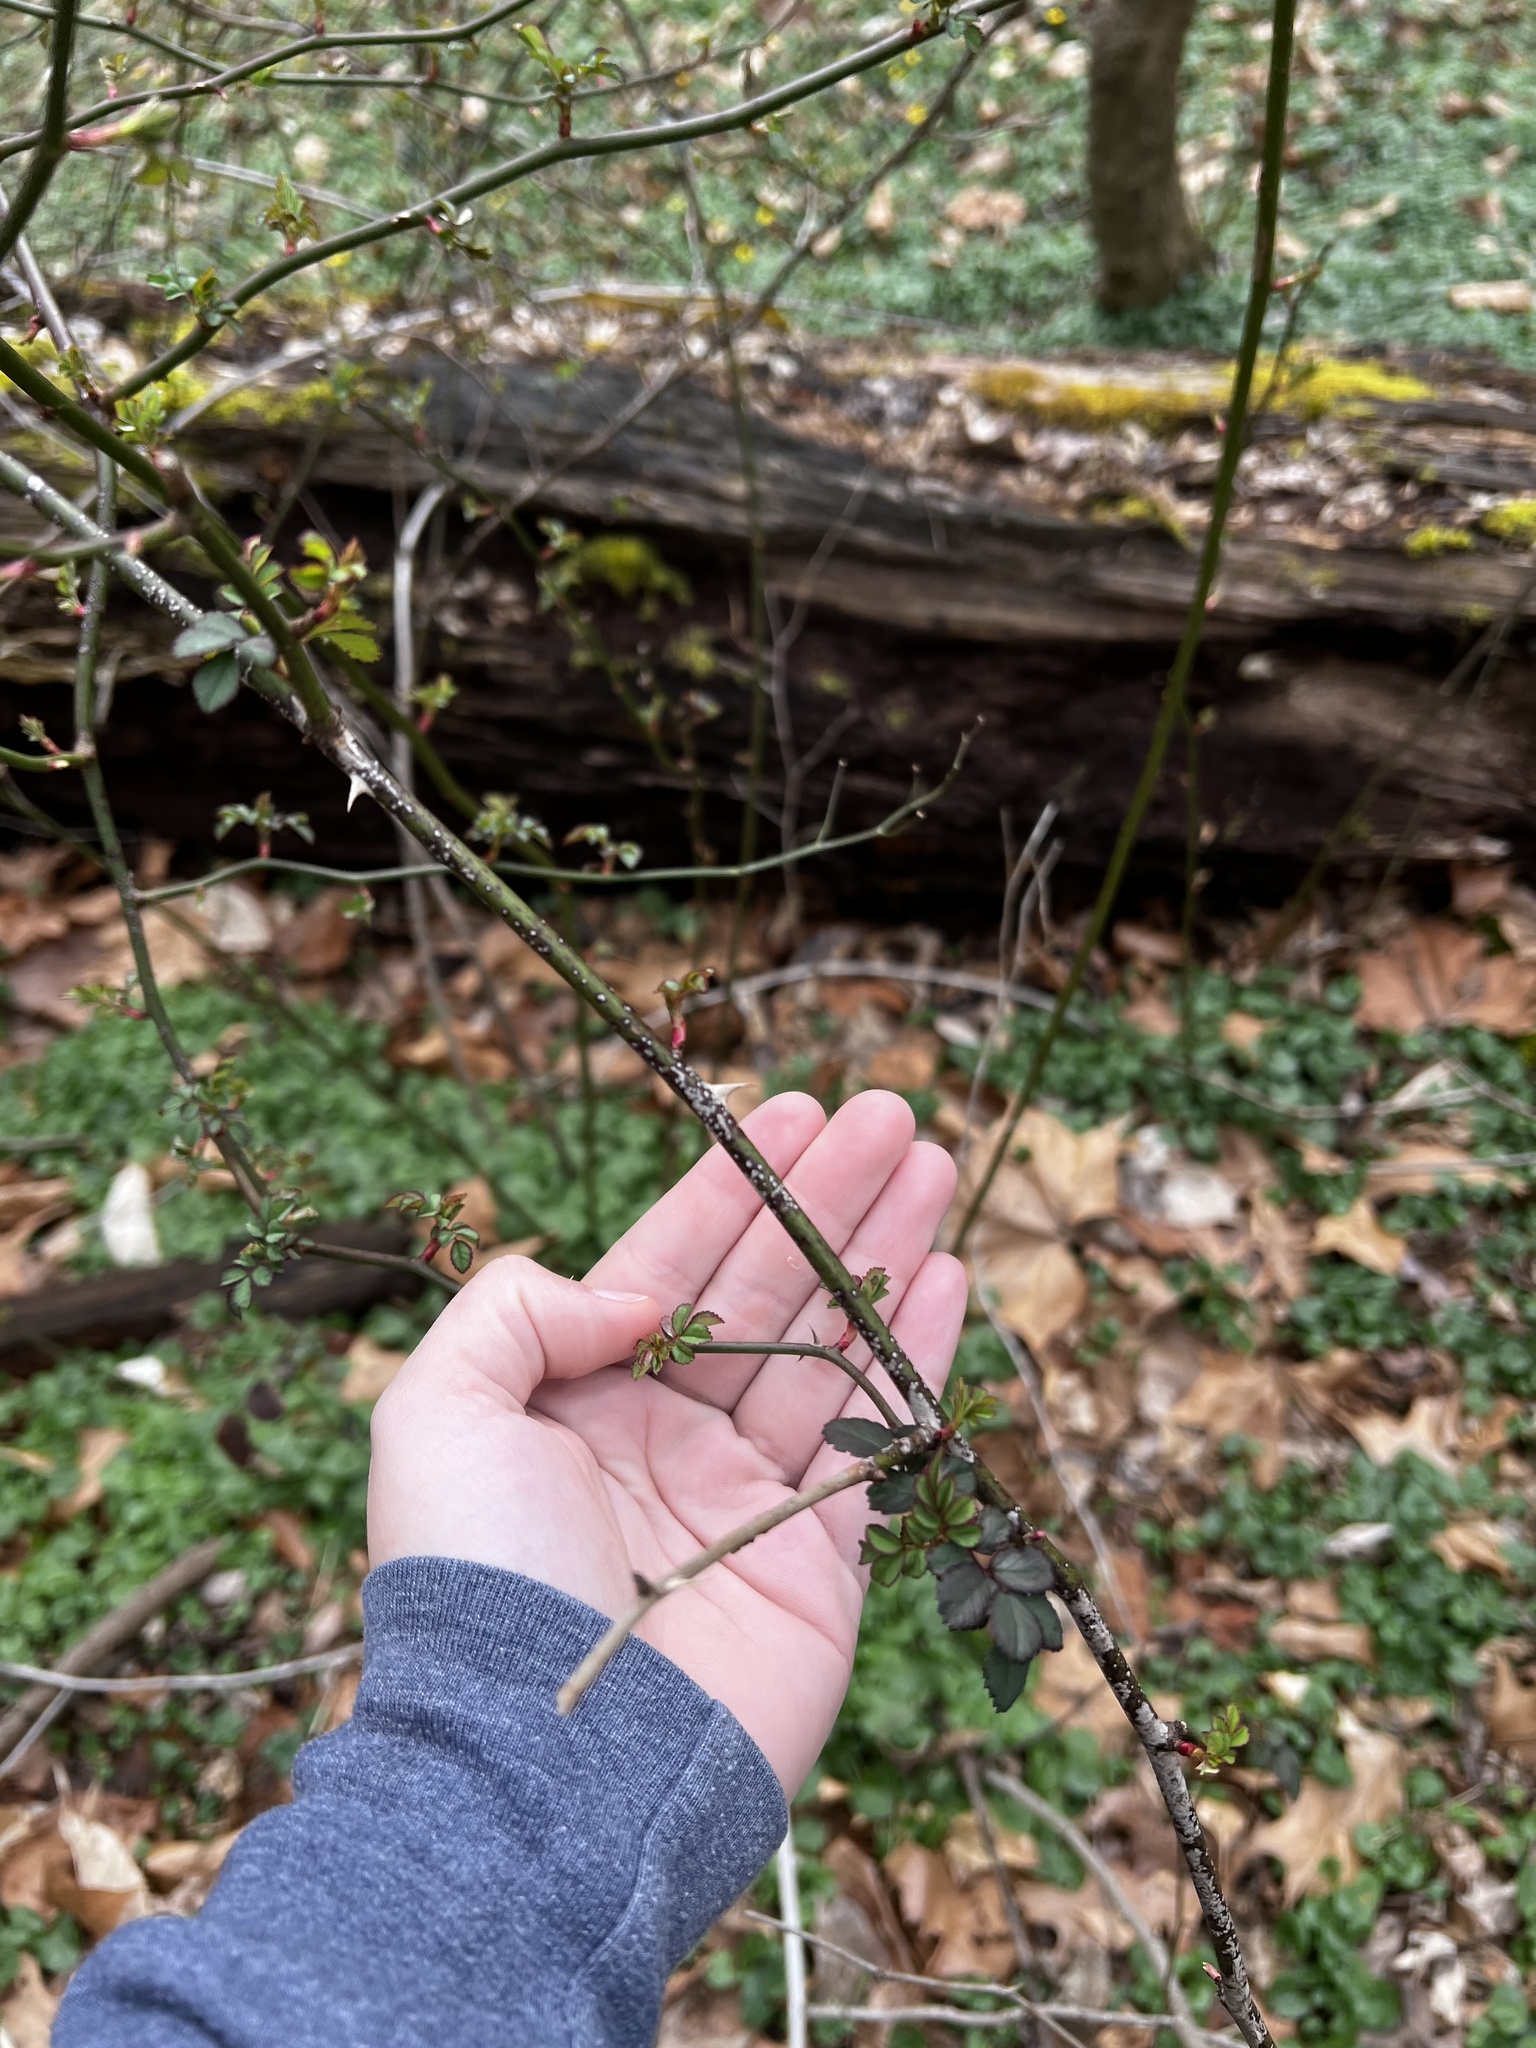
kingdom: Plantae
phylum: Tracheophyta
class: Magnoliopsida
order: Rosales
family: Rosaceae
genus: Rosa
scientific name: Rosa multiflora
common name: Multiflora rose
